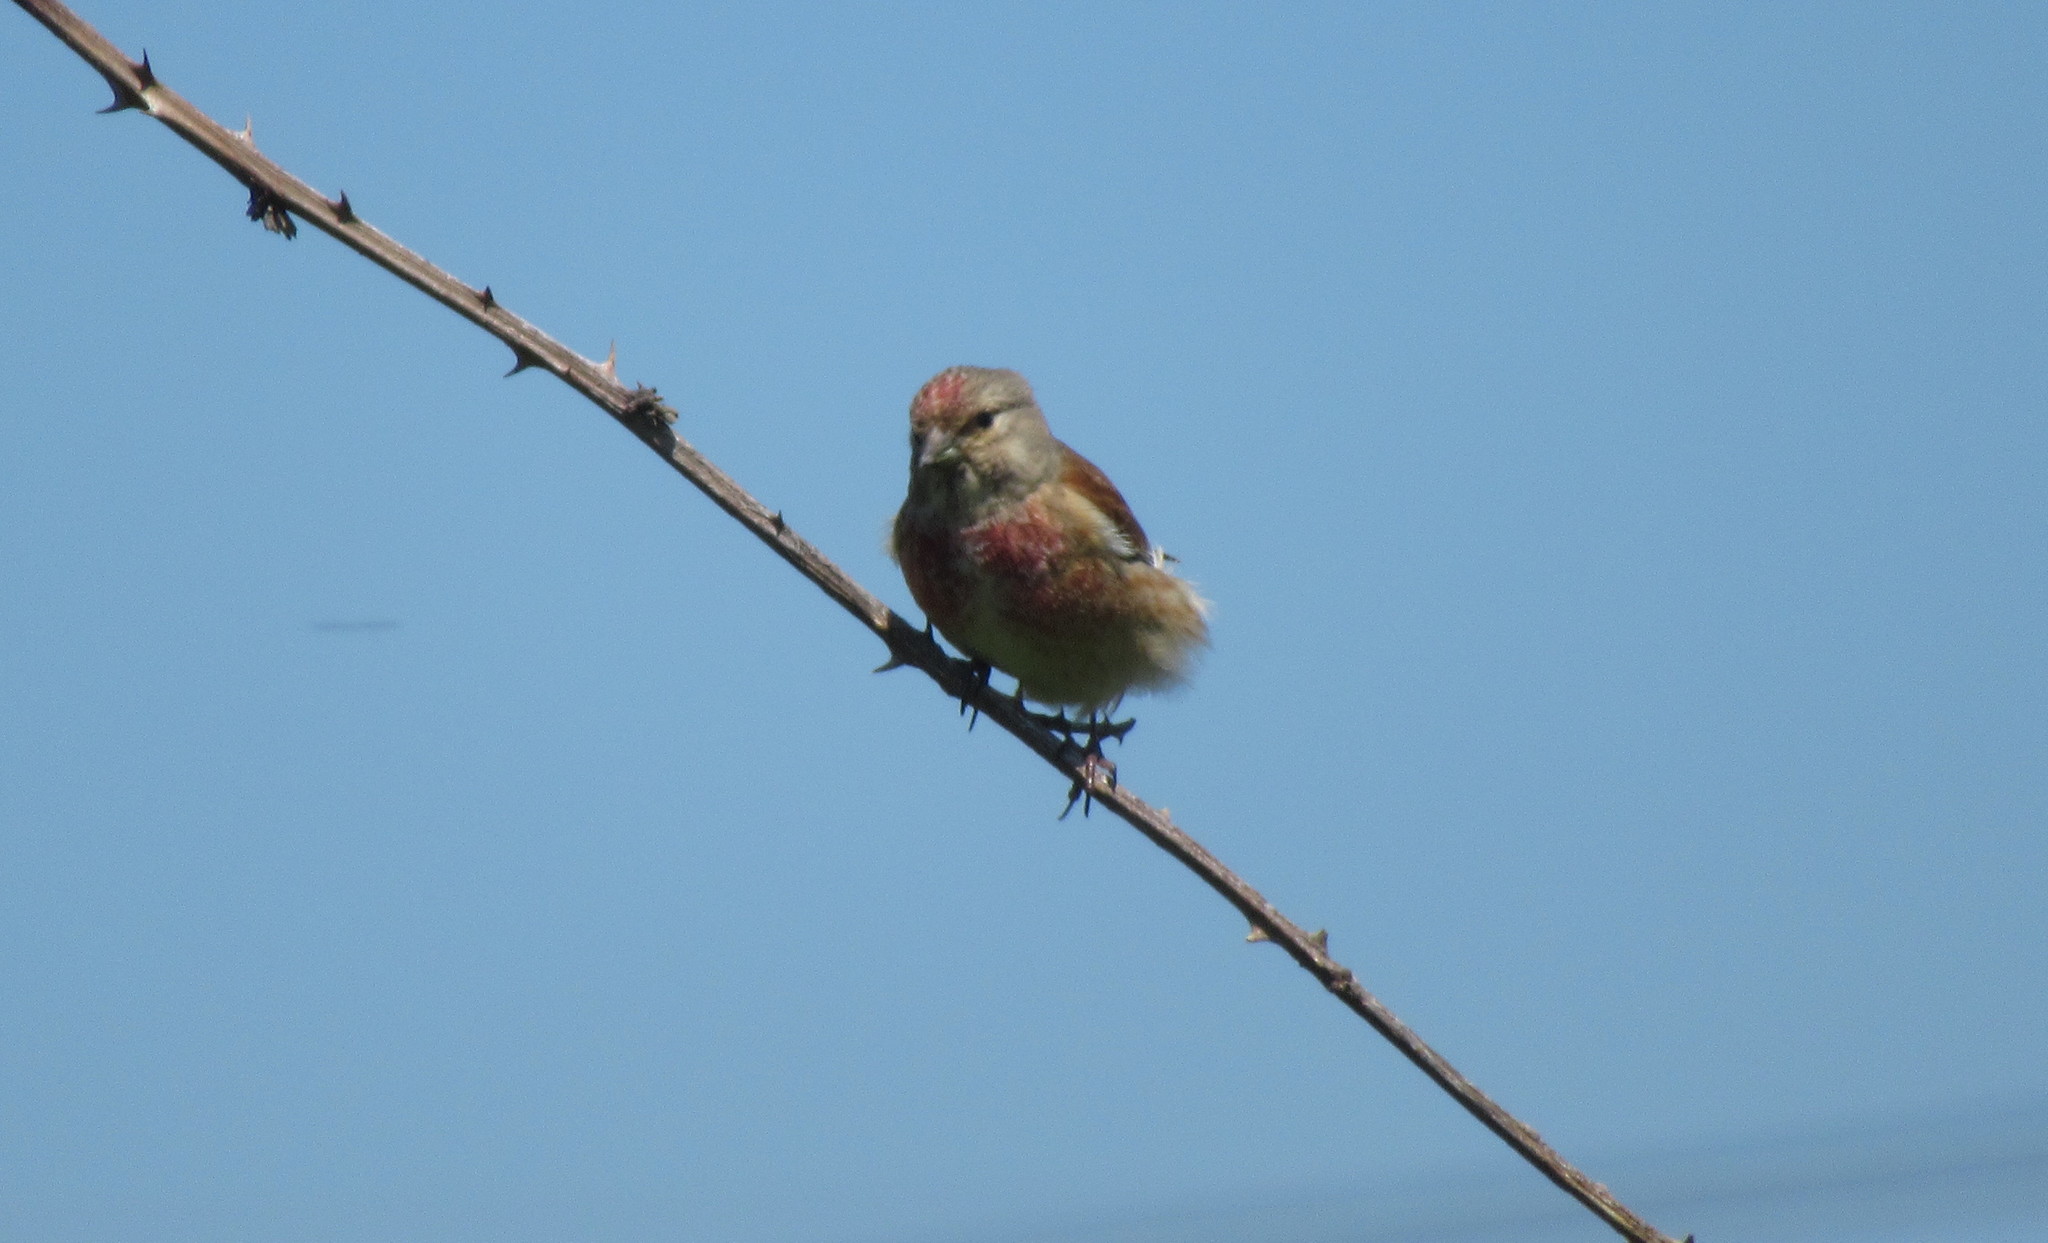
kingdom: Animalia
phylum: Chordata
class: Aves
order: Passeriformes
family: Fringillidae
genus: Linaria
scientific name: Linaria cannabina
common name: Common linnet
